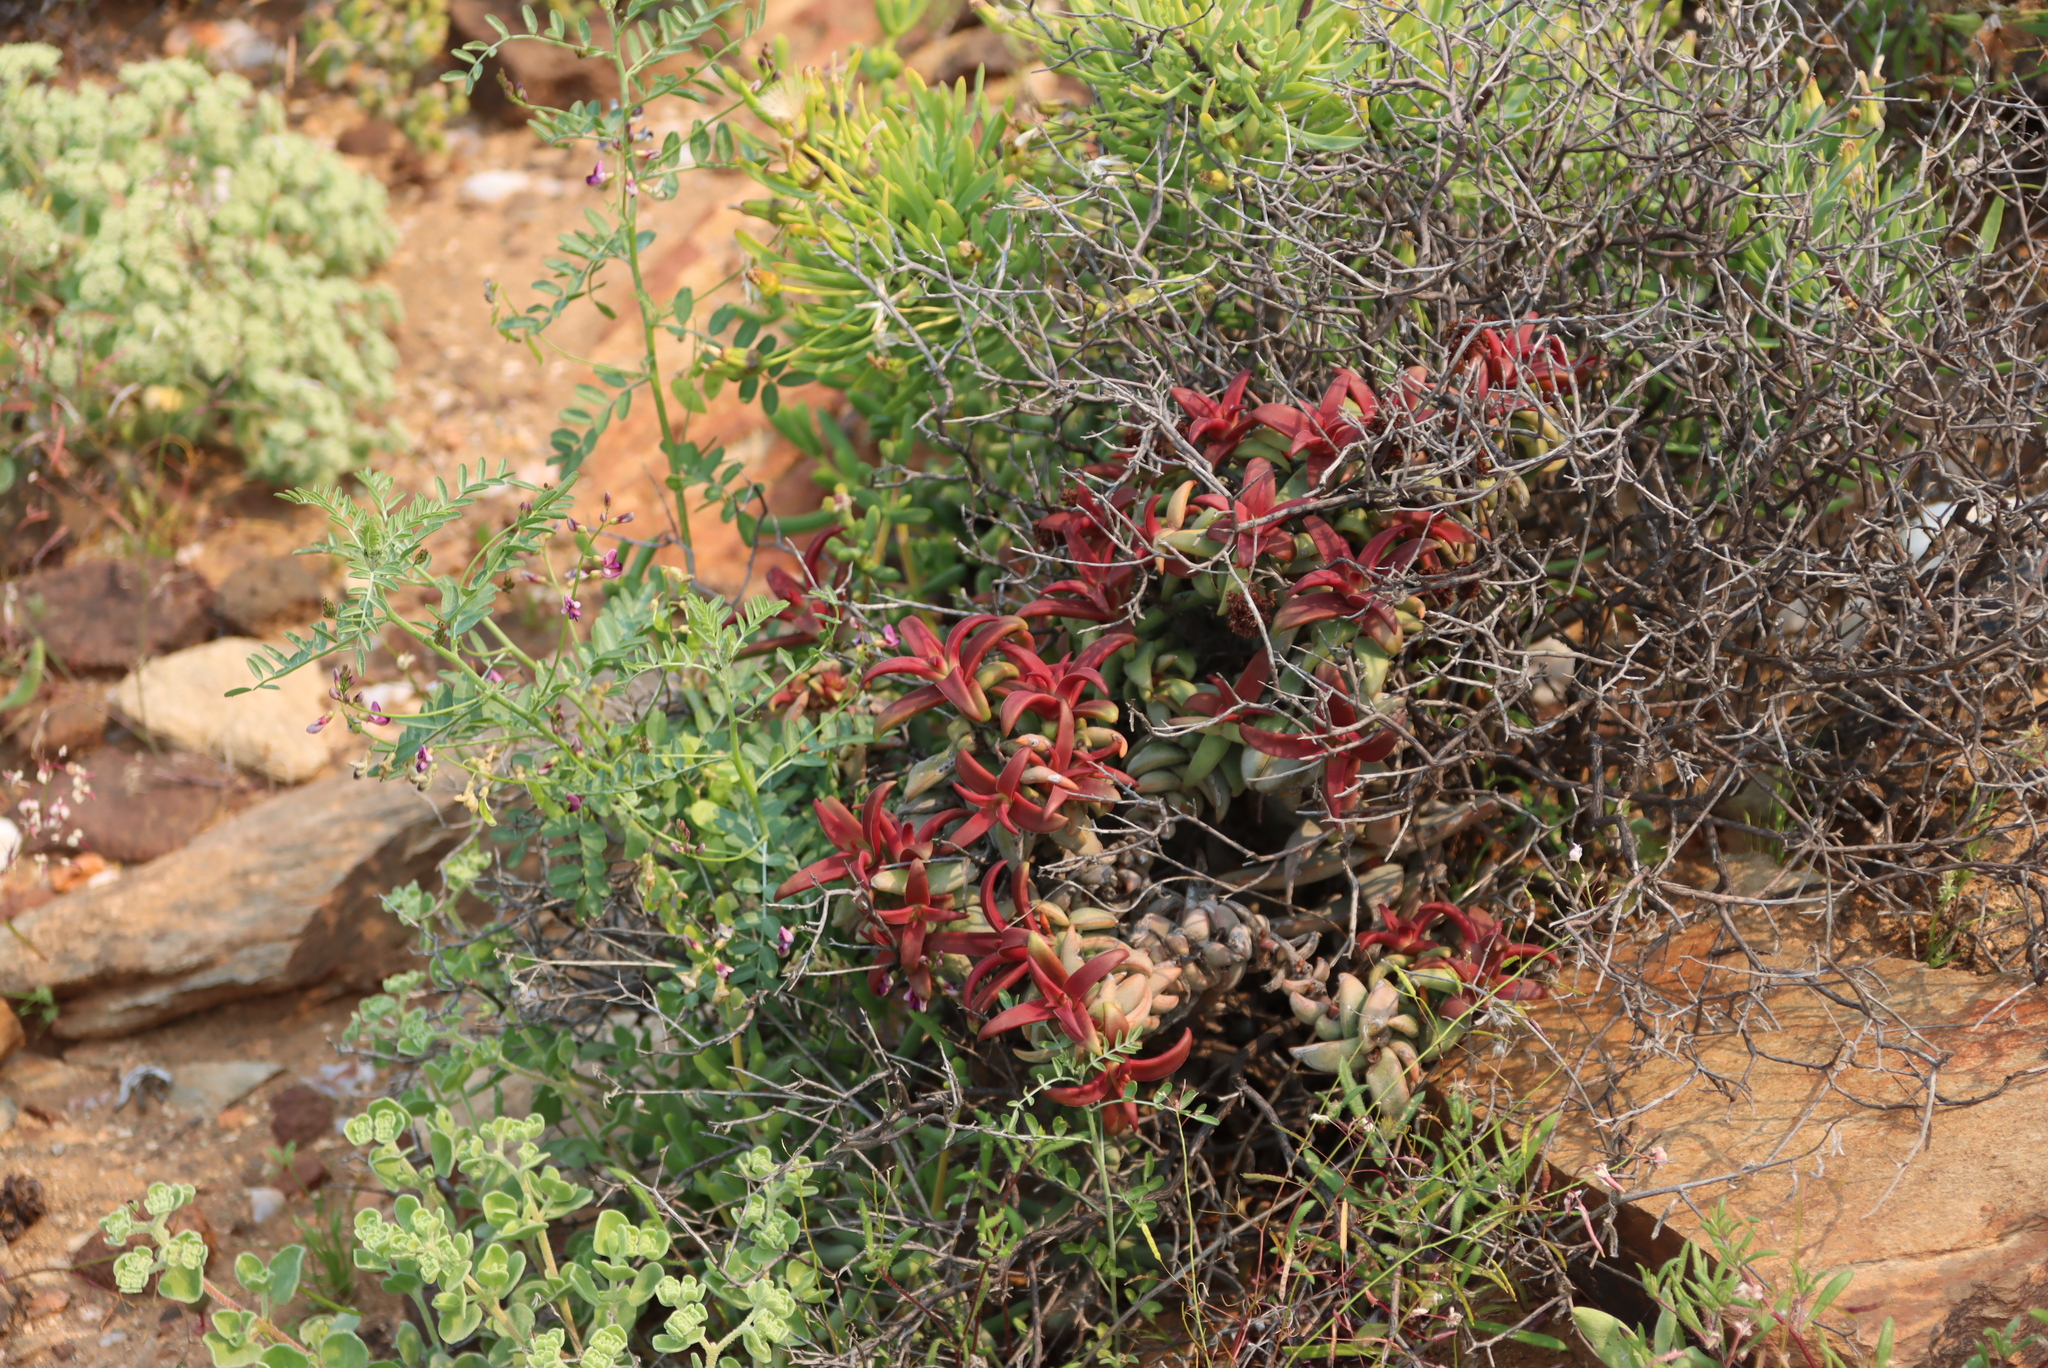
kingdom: Plantae
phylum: Tracheophyta
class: Magnoliopsida
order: Saxifragales
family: Crassulaceae
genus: Crassula
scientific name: Crassula fusca
